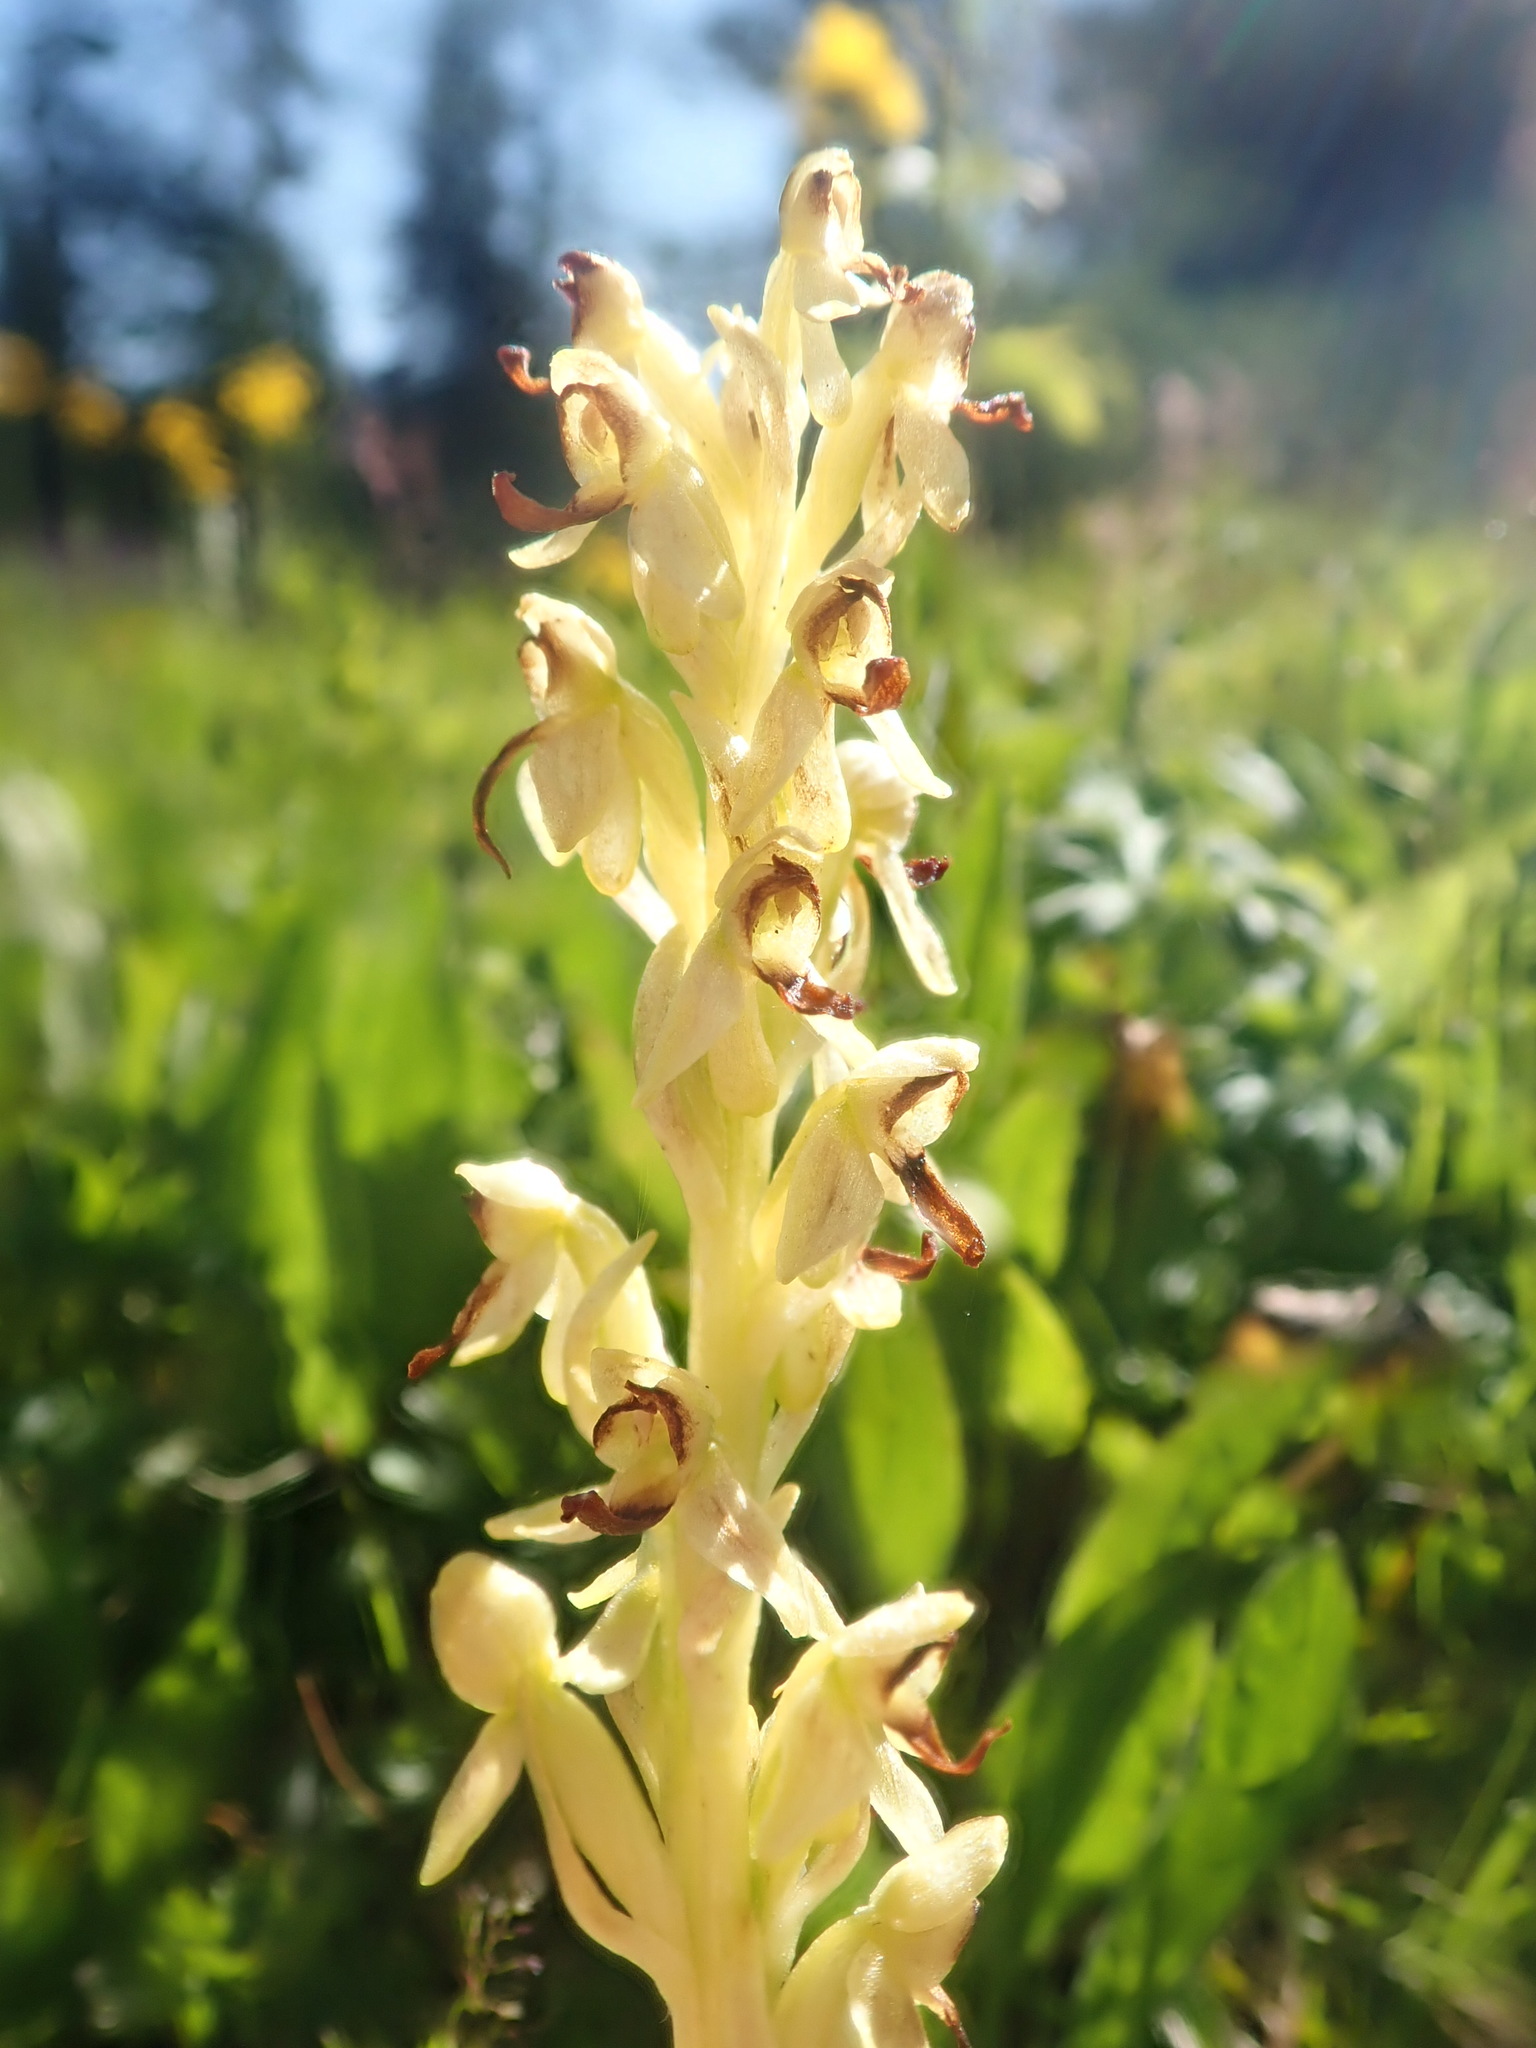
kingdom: Plantae
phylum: Tracheophyta
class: Liliopsida
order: Asparagales
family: Orchidaceae
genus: Platanthera
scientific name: Platanthera stricta
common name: Slender bog orchid
